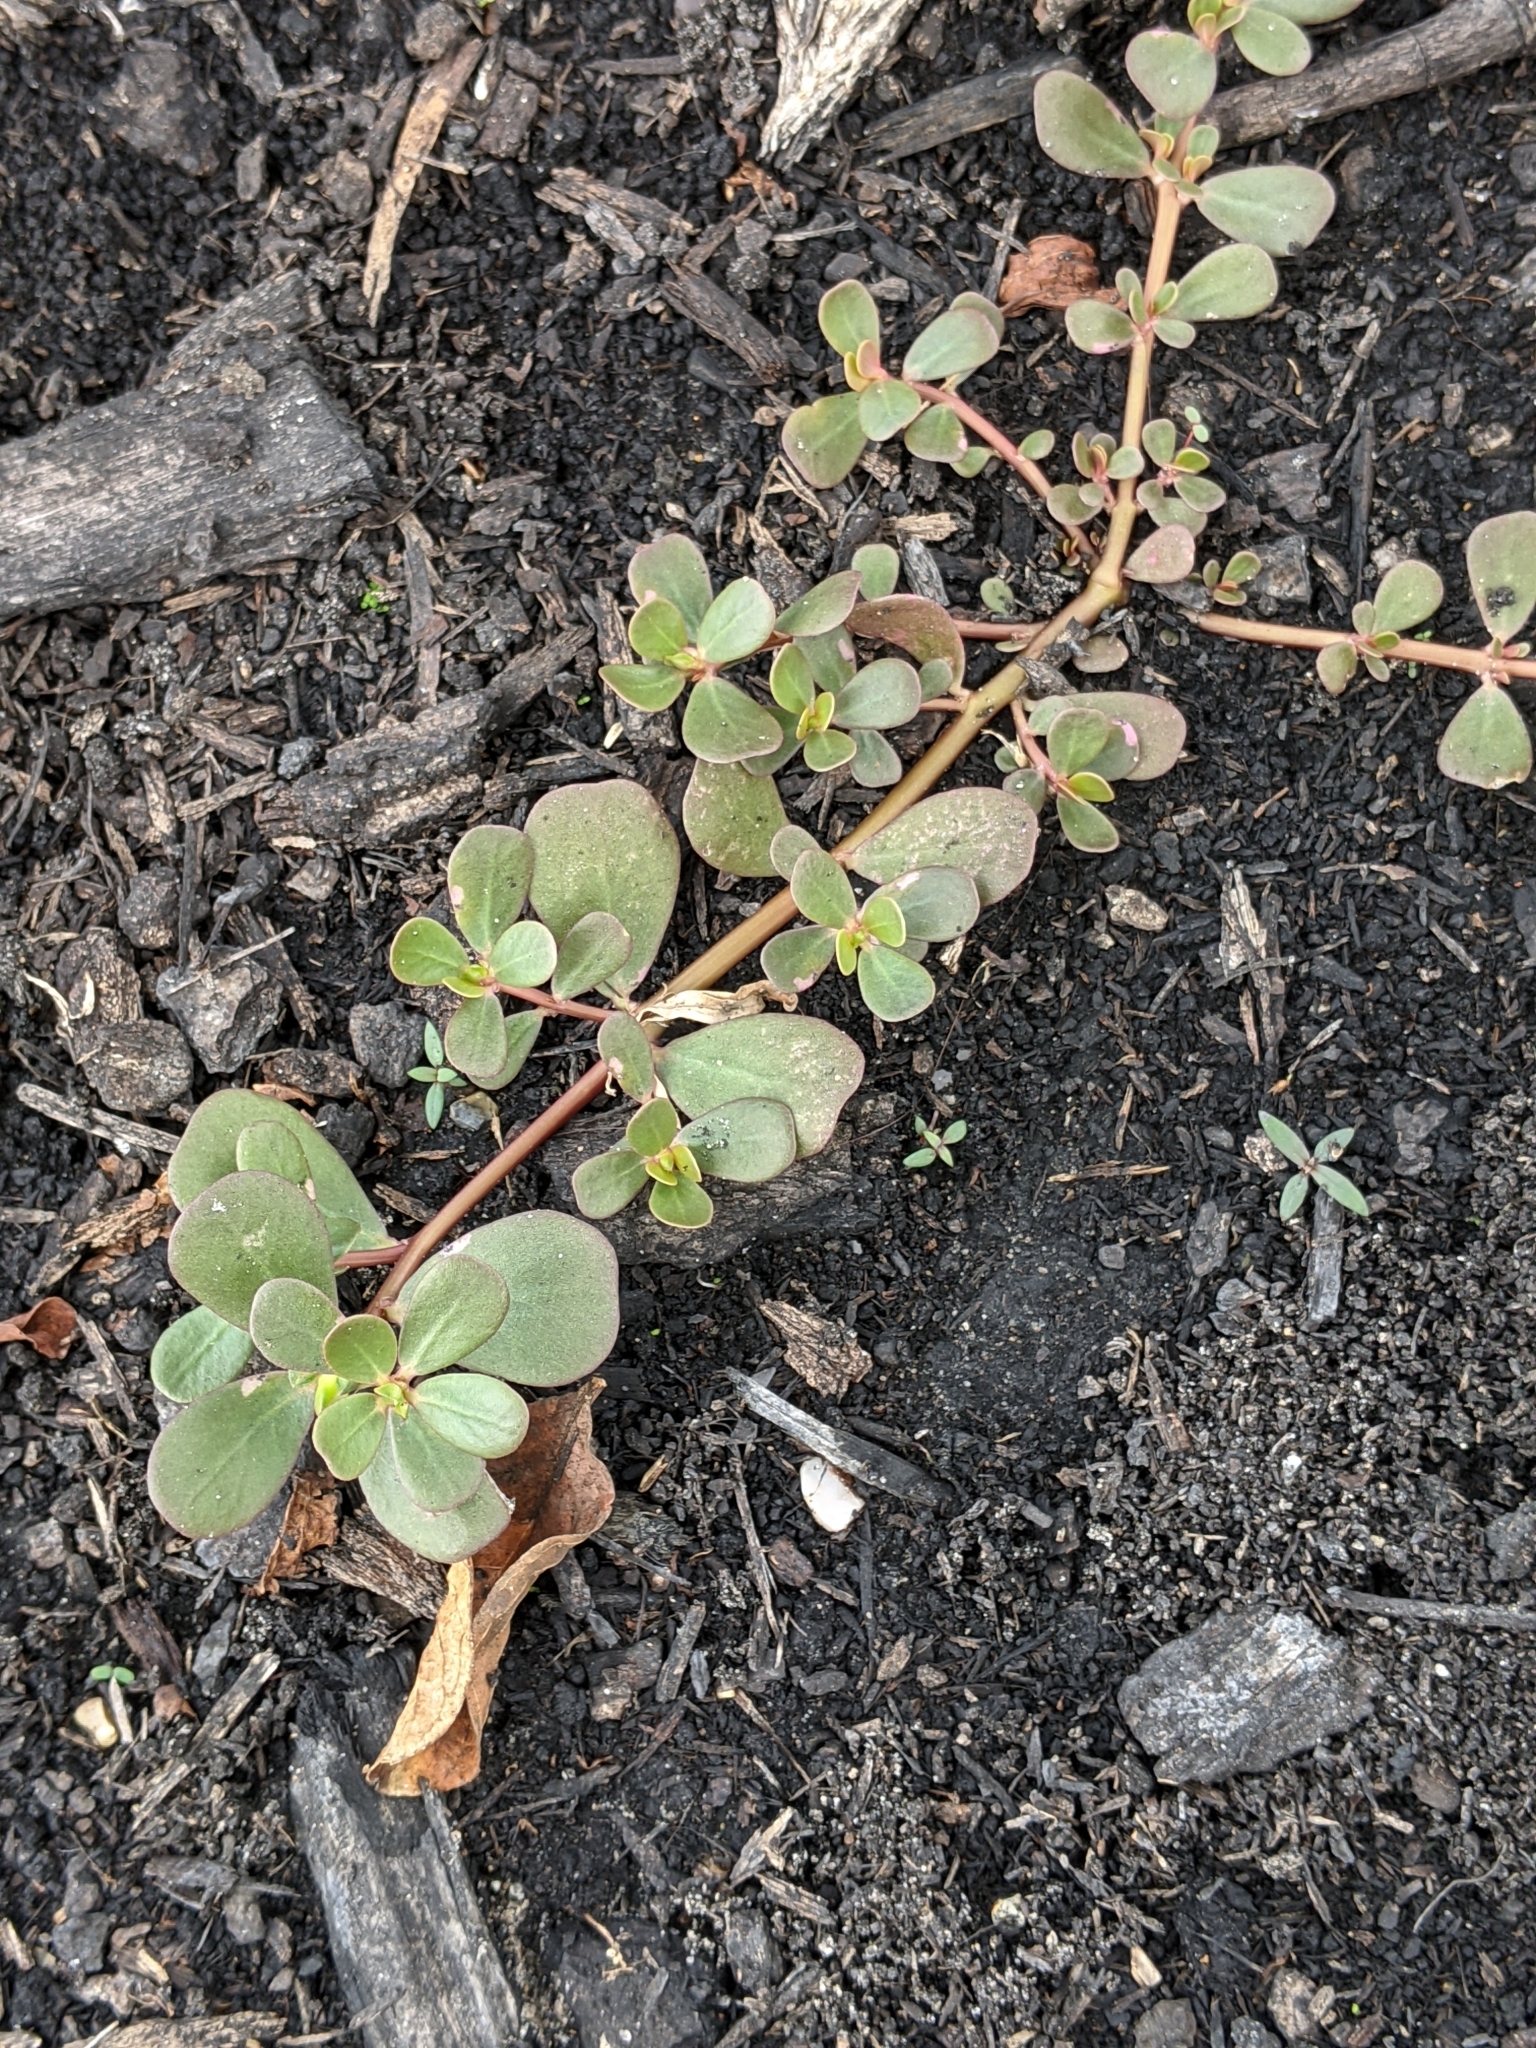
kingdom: Plantae
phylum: Tracheophyta
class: Magnoliopsida
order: Caryophyllales
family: Portulacaceae
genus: Portulaca
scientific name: Portulaca oleracea
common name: Common purslane
